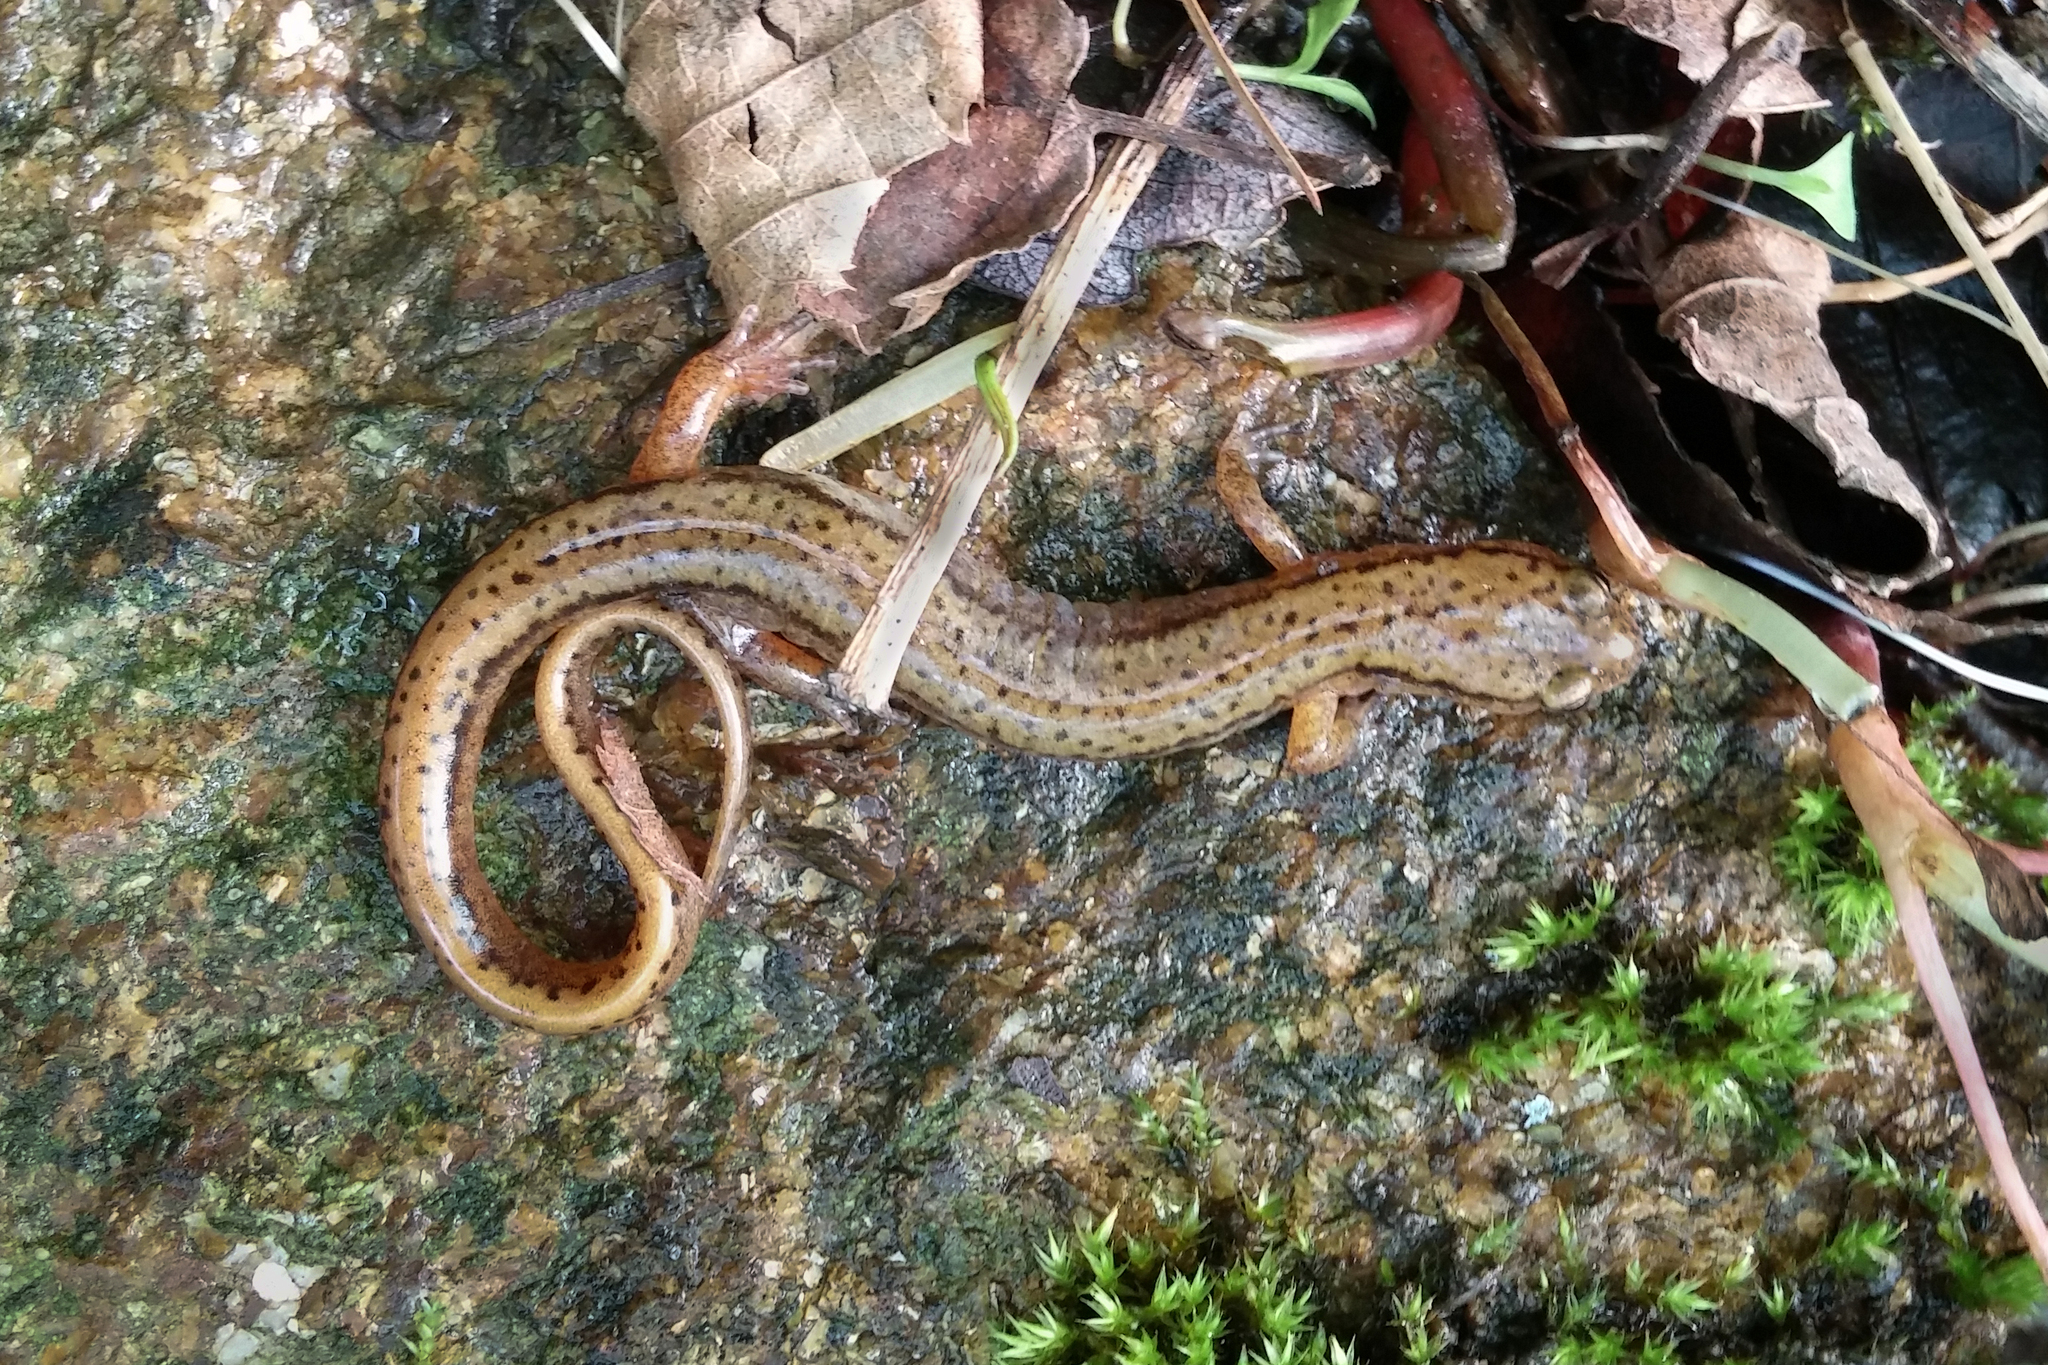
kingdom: Animalia
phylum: Chordata
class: Amphibia
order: Caudata
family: Plethodontidae
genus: Eurycea
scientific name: Eurycea bislineata
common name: Northern two-lined salamander
